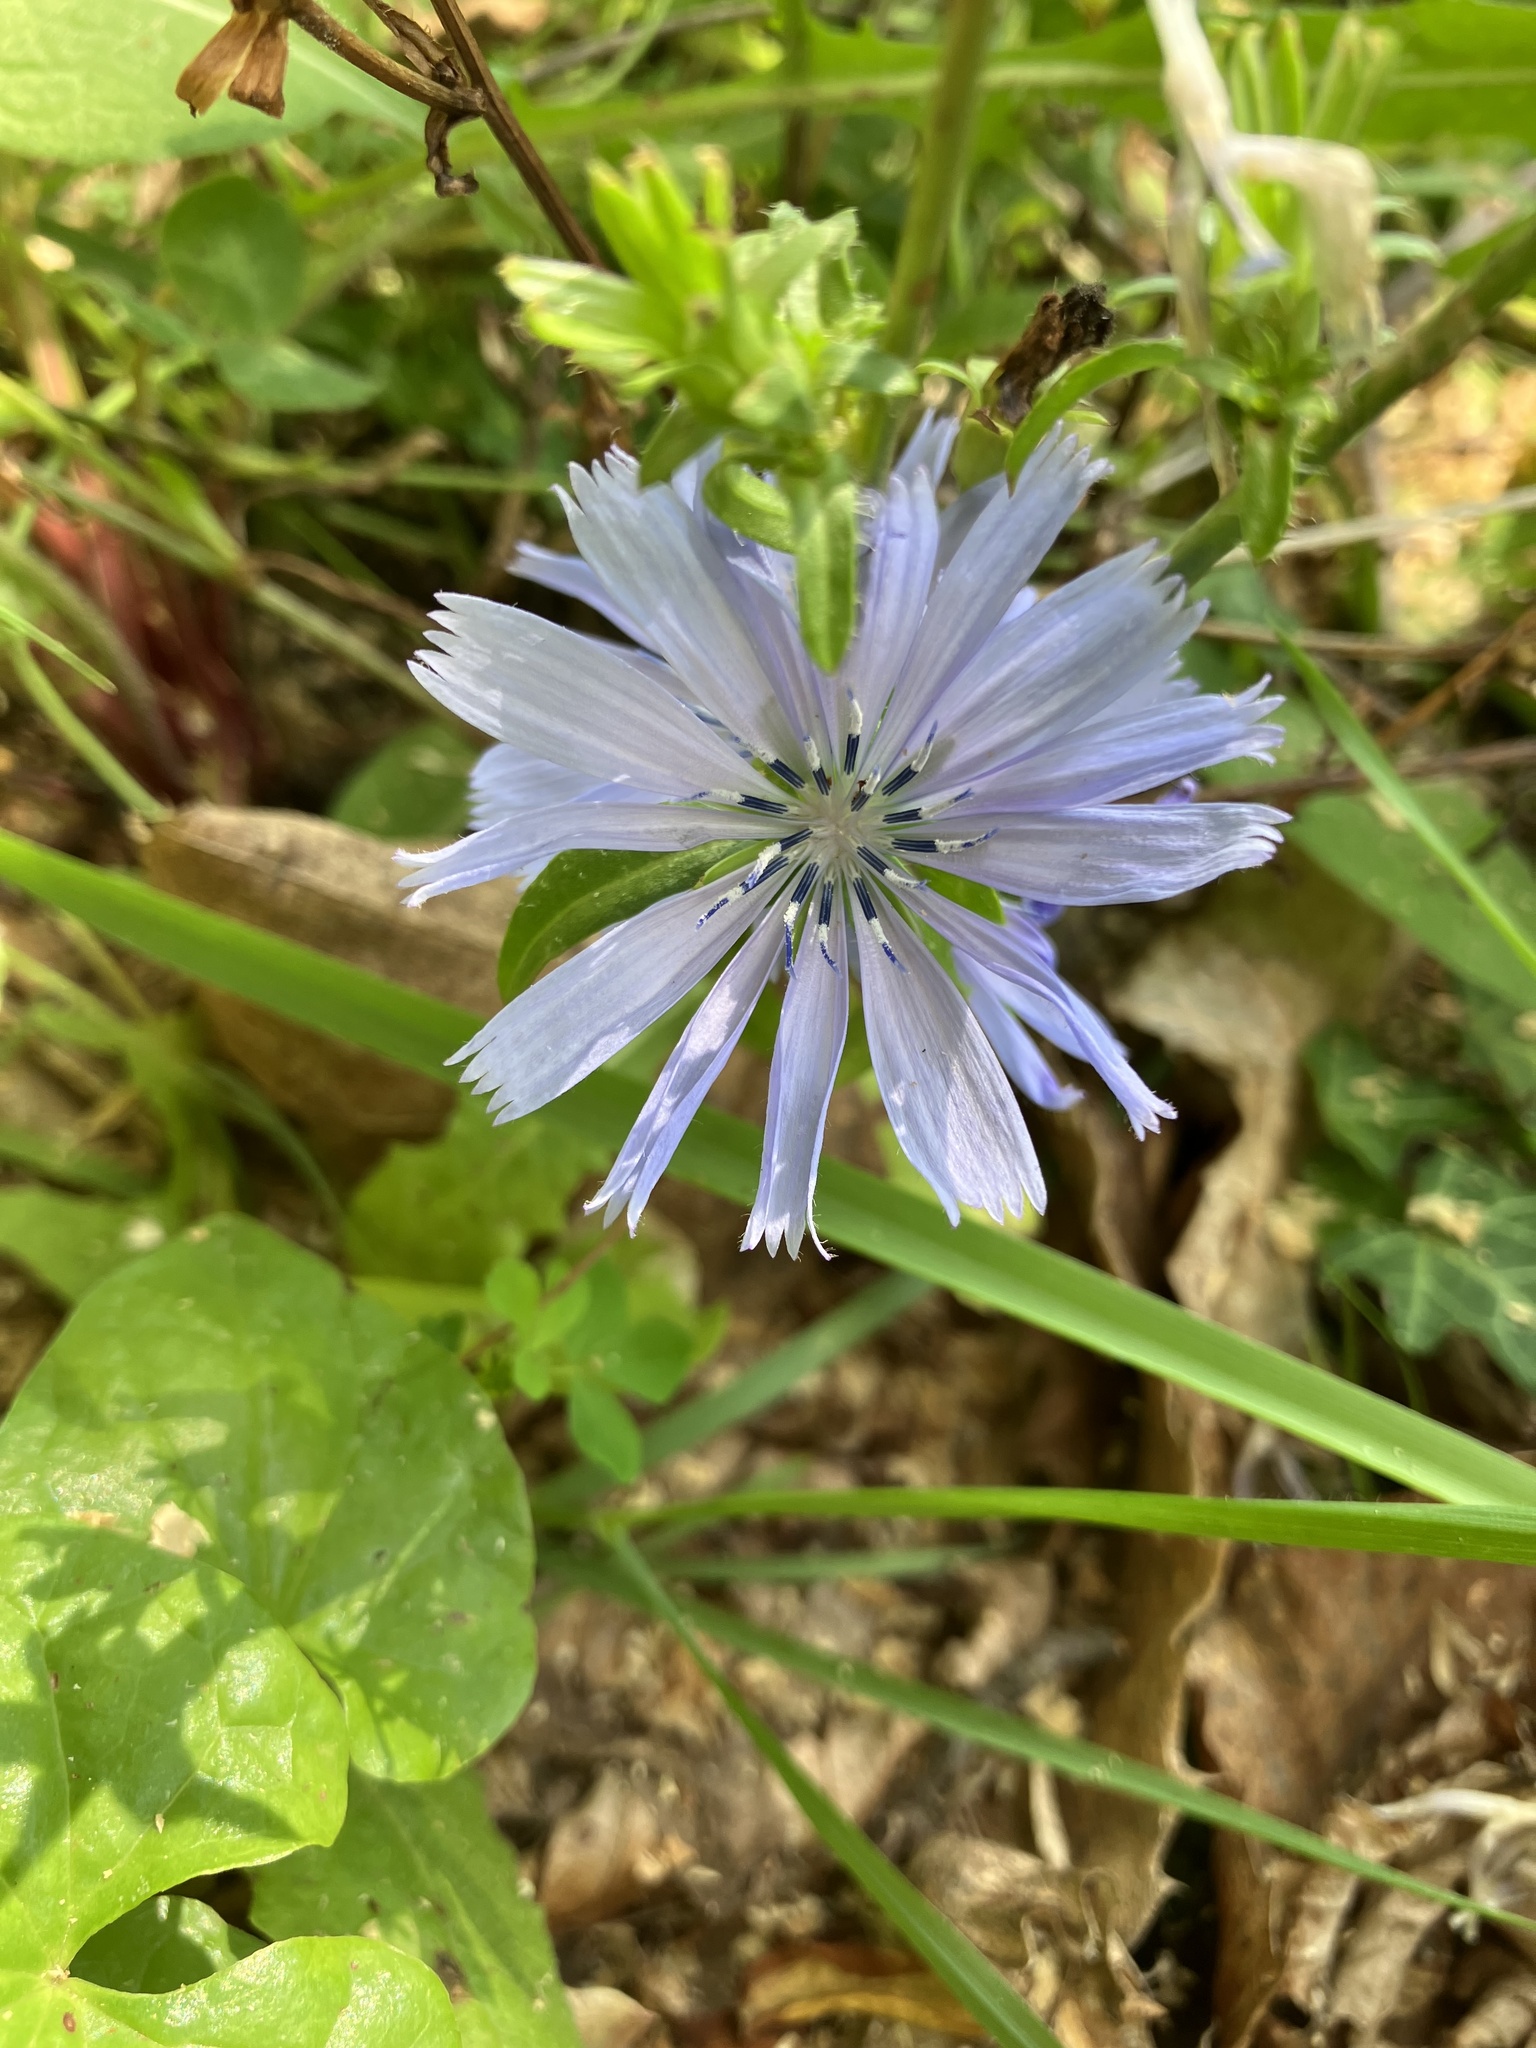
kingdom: Plantae
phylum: Tracheophyta
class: Magnoliopsida
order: Asterales
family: Asteraceae
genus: Cichorium
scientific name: Cichorium intybus
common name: Chicory
